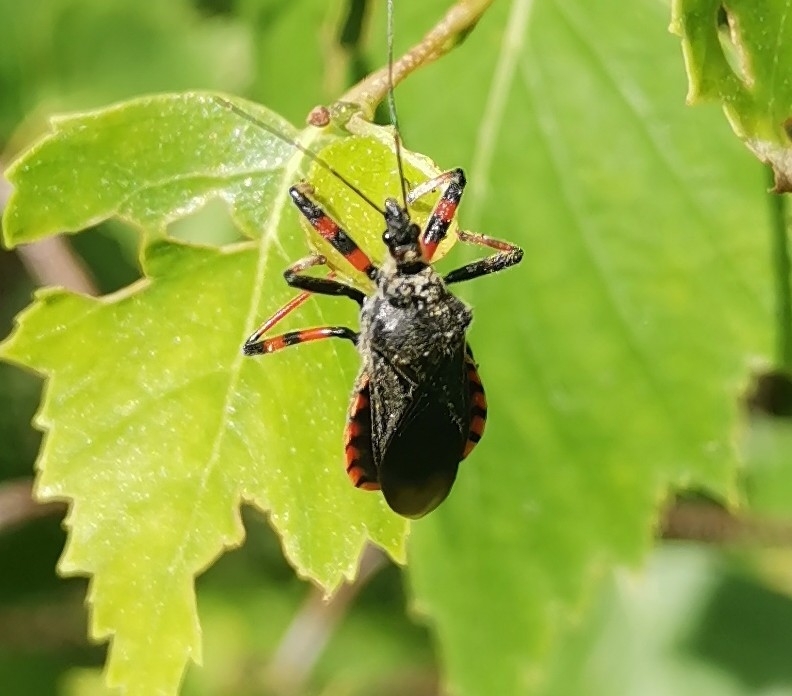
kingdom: Animalia
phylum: Arthropoda
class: Insecta
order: Hemiptera
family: Reduviidae
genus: Rhynocoris
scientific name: Rhynocoris annulatus
